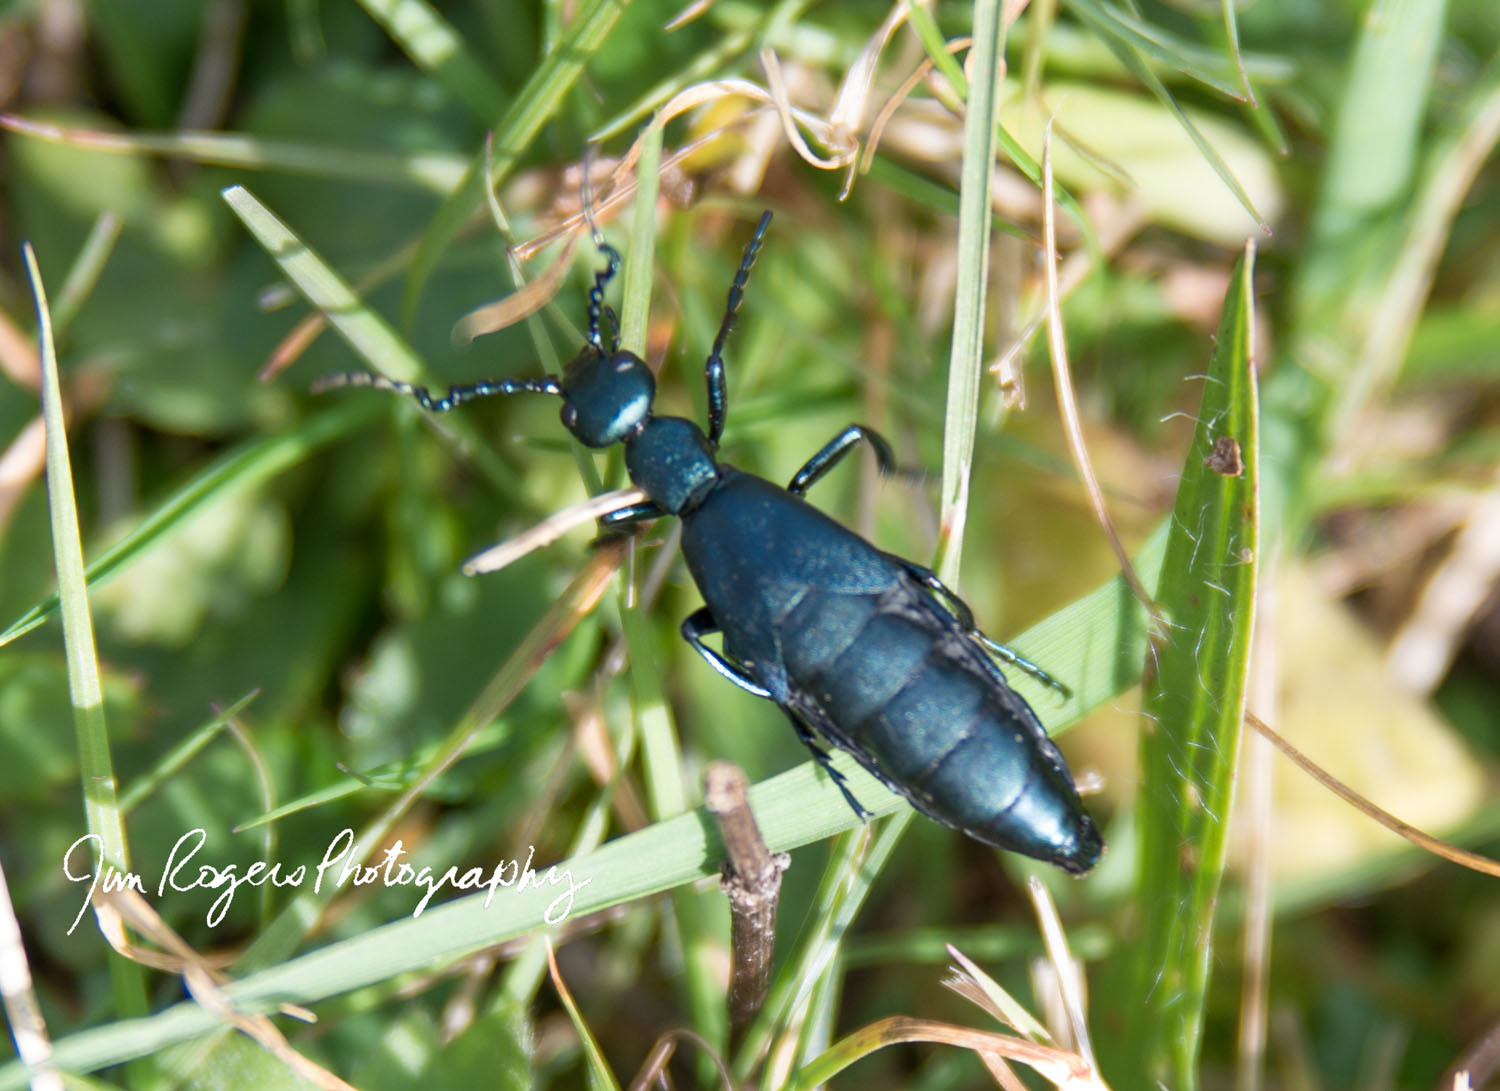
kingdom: Animalia
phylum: Arthropoda
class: Insecta
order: Coleoptera
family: Meloidae
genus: Meloe
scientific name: Meloe impressus
